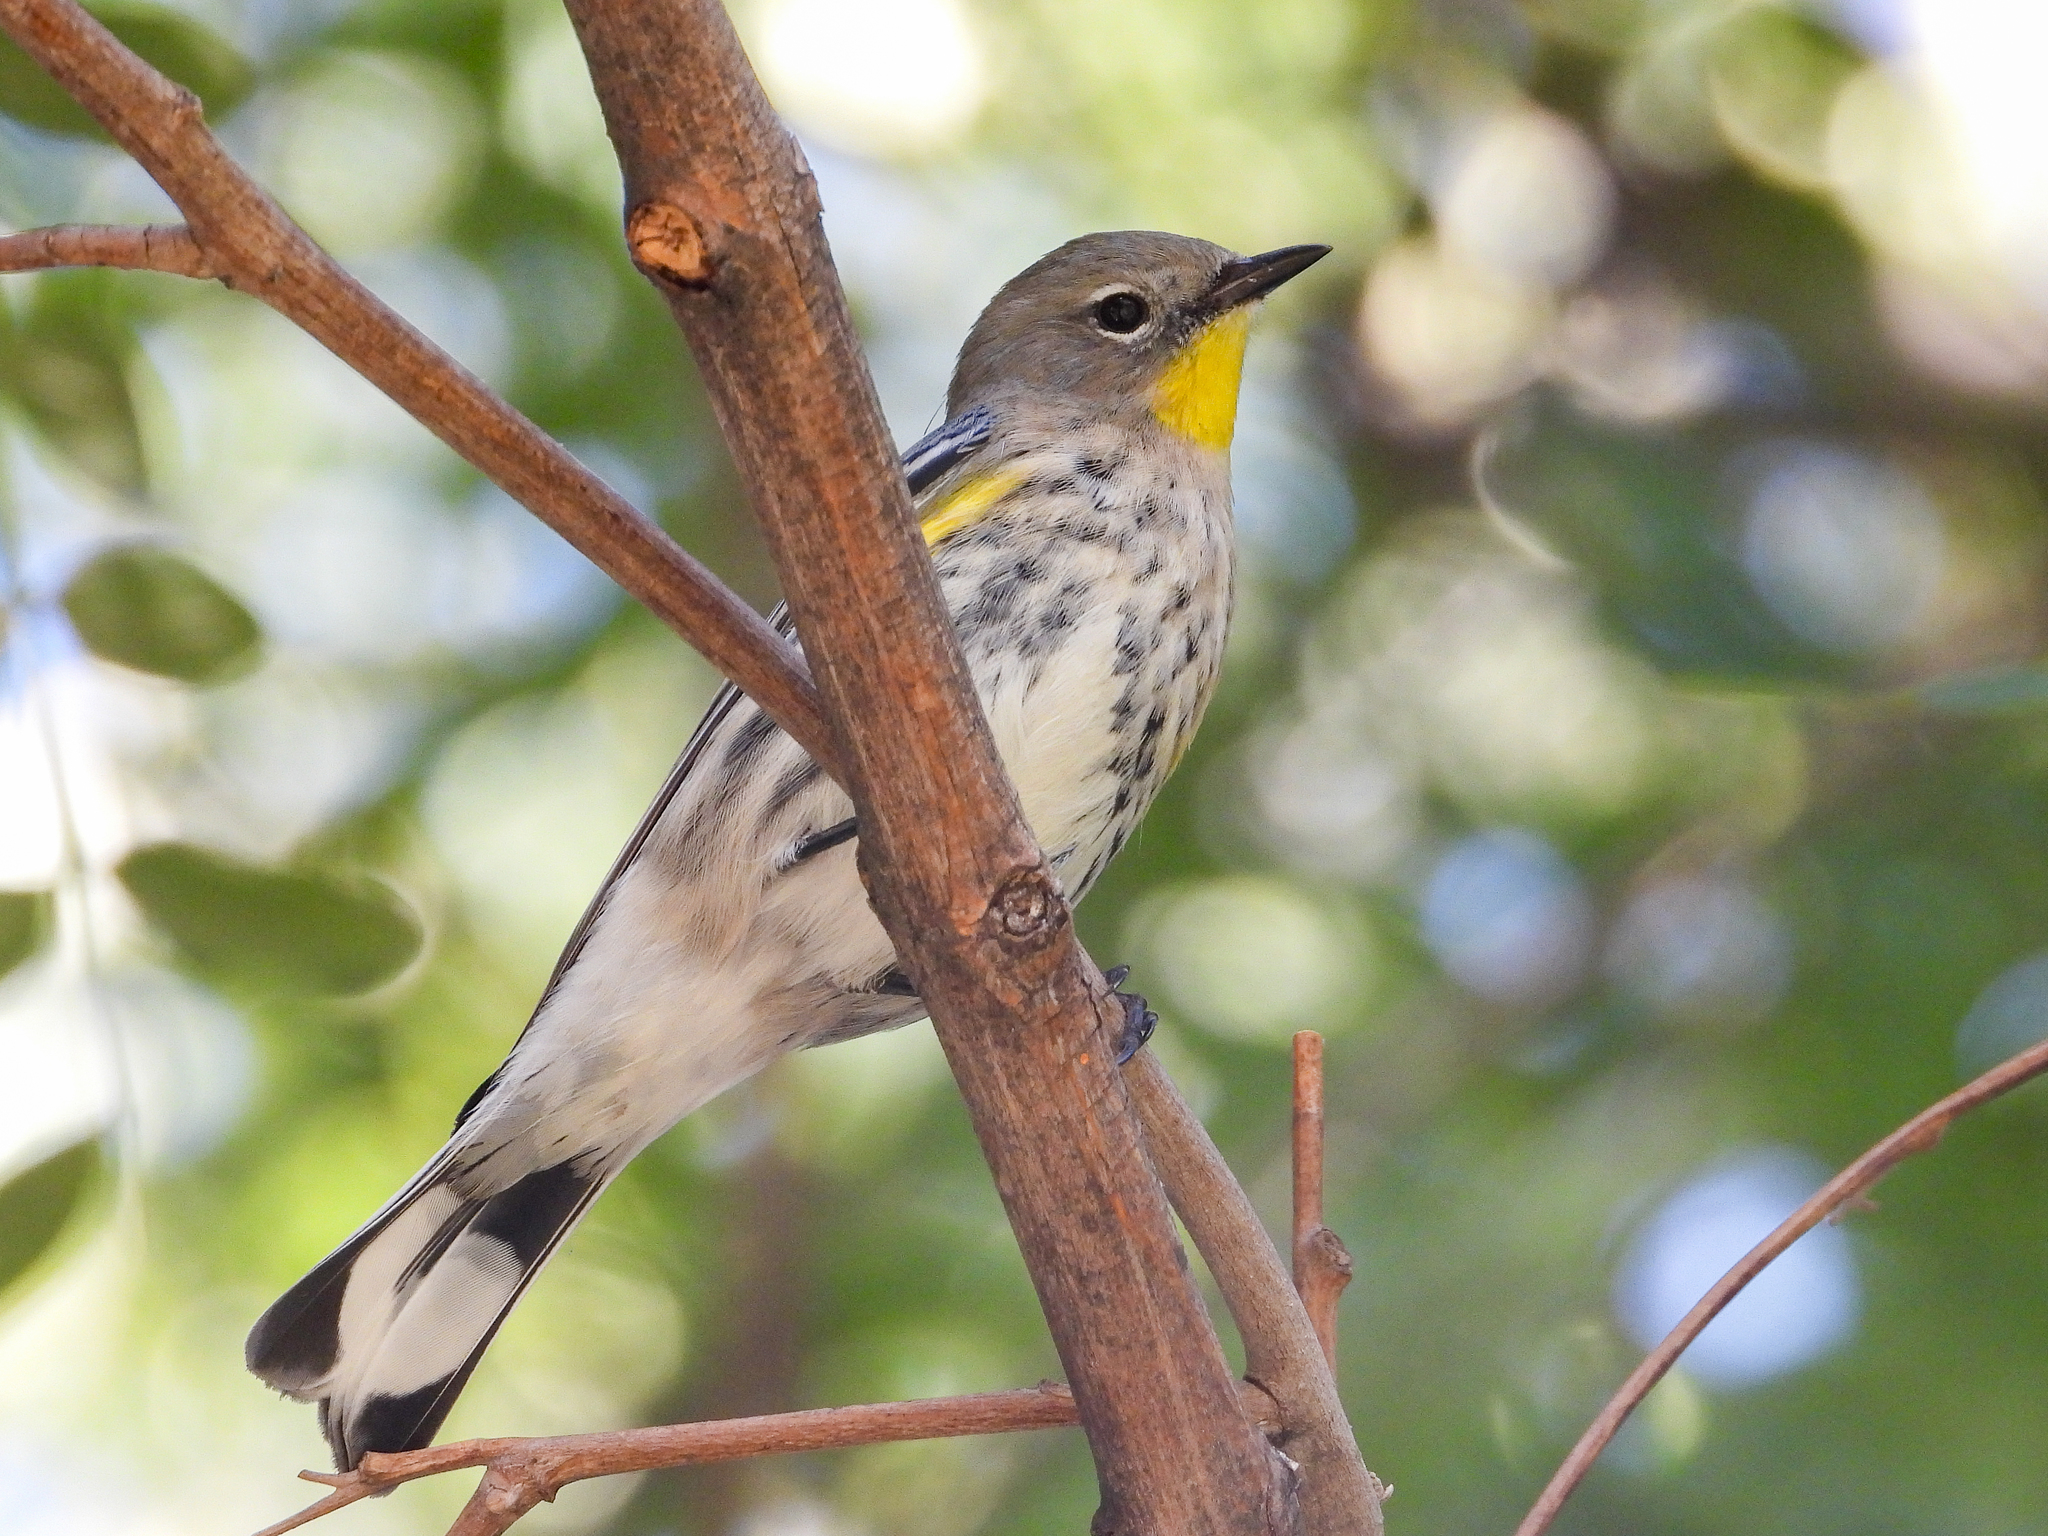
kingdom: Animalia
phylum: Chordata
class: Aves
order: Passeriformes
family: Parulidae
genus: Setophaga
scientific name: Setophaga coronata
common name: Myrtle warbler
